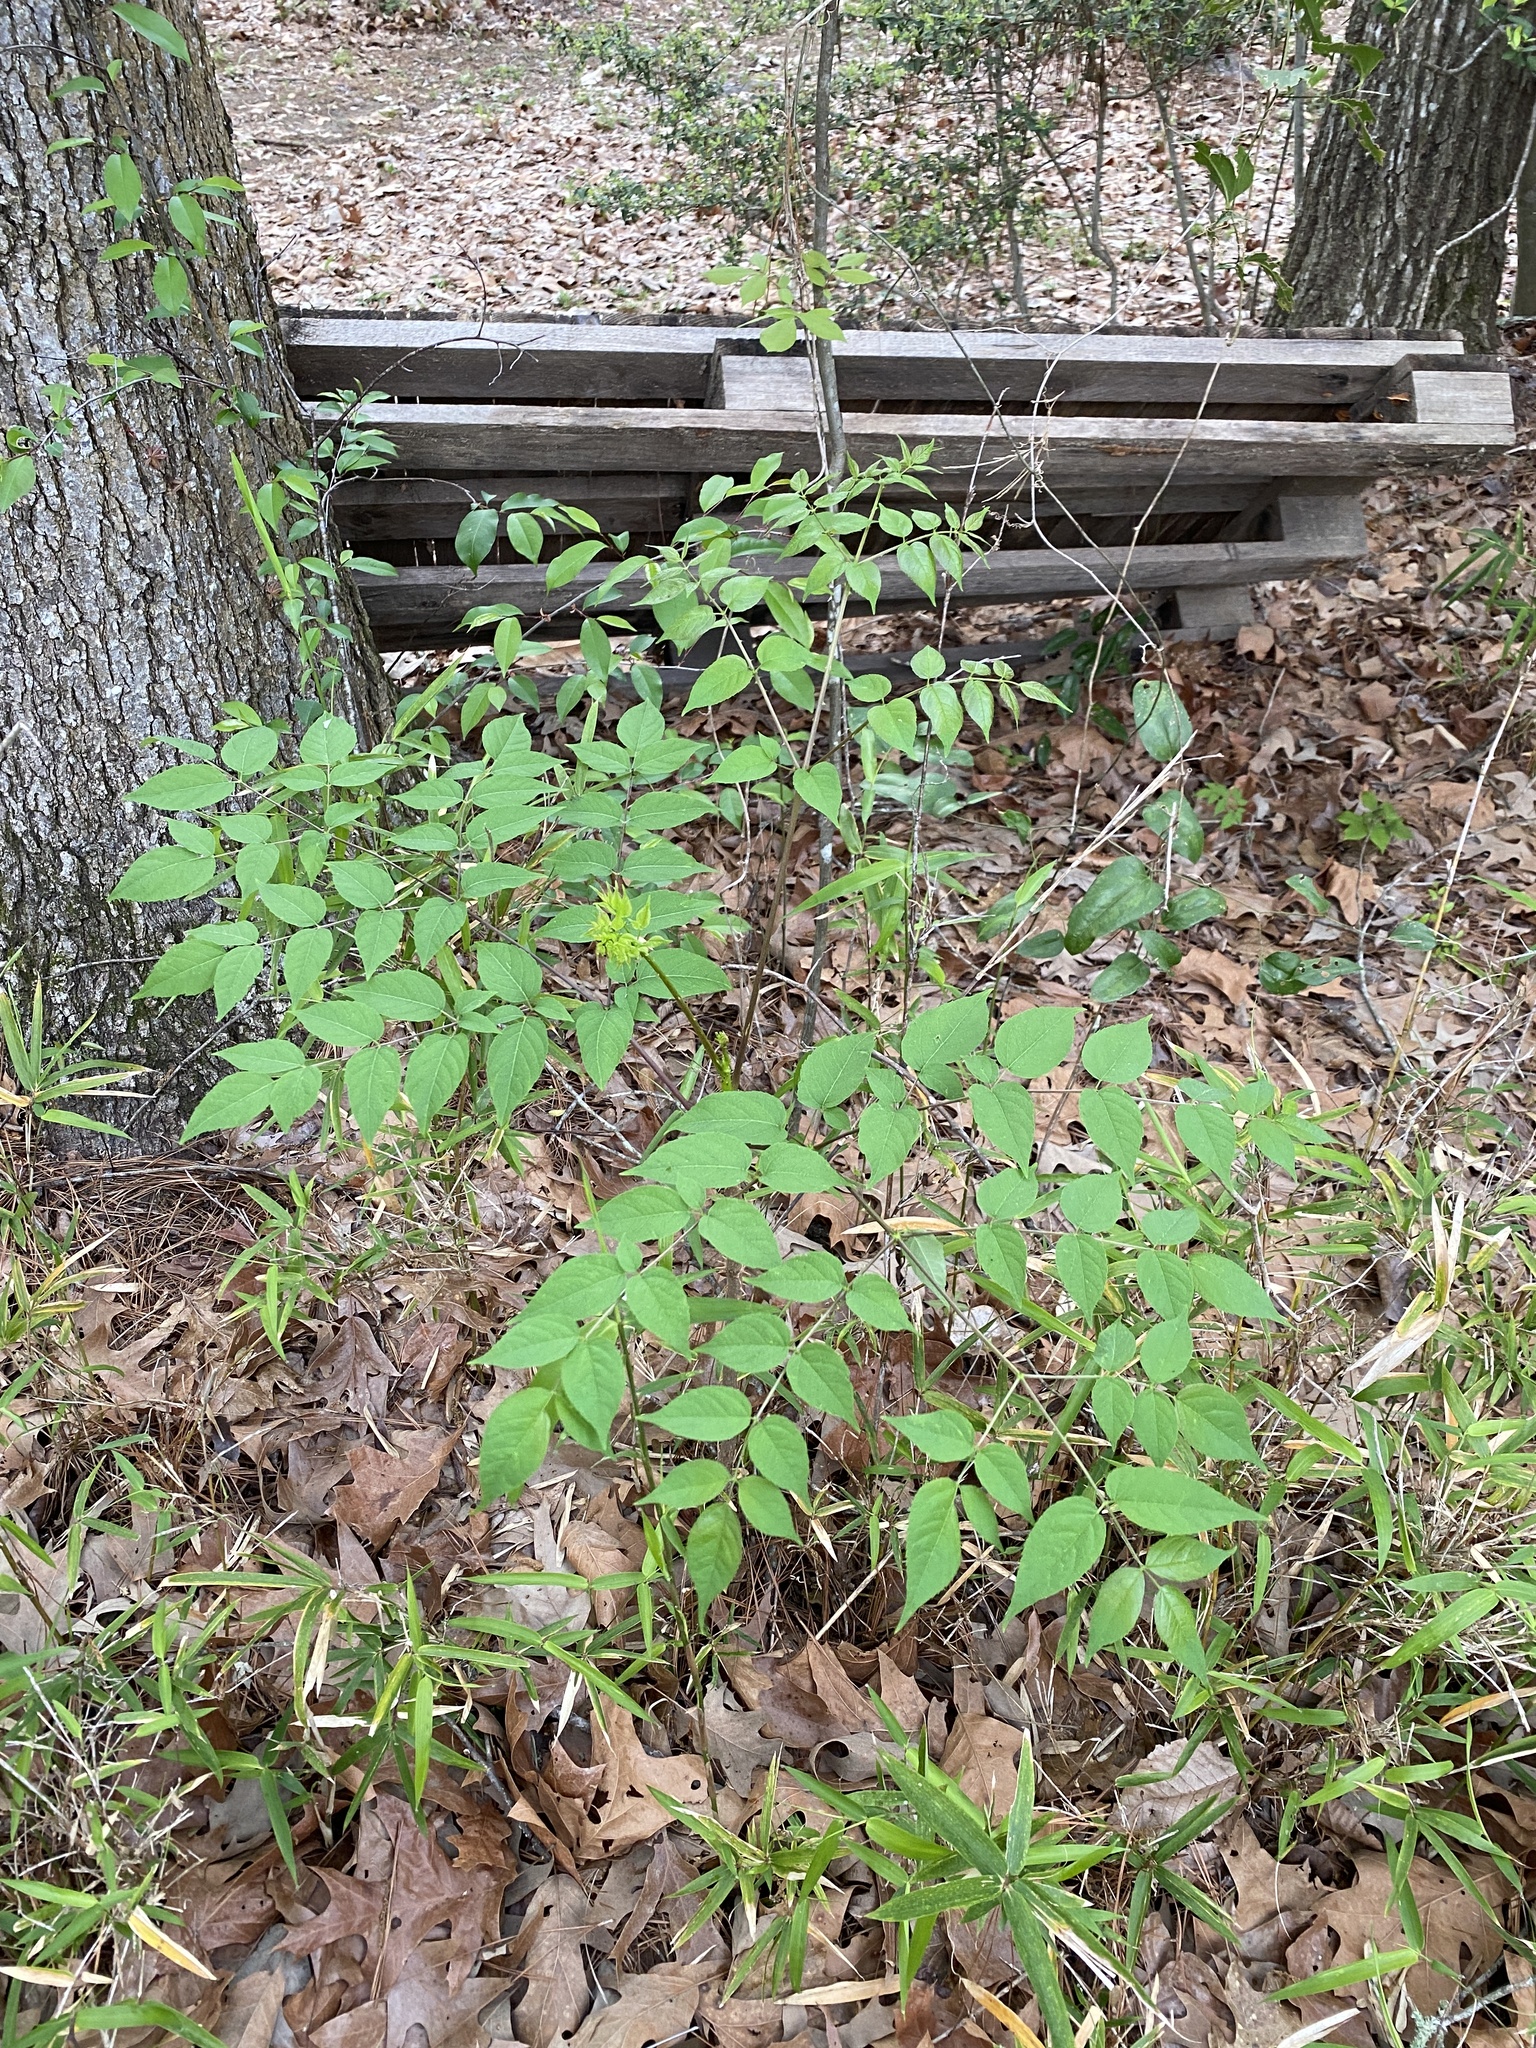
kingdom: Plantae
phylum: Tracheophyta
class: Magnoliopsida
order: Apiales
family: Araliaceae
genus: Aralia
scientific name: Aralia spinosa
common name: Hercules'-club
